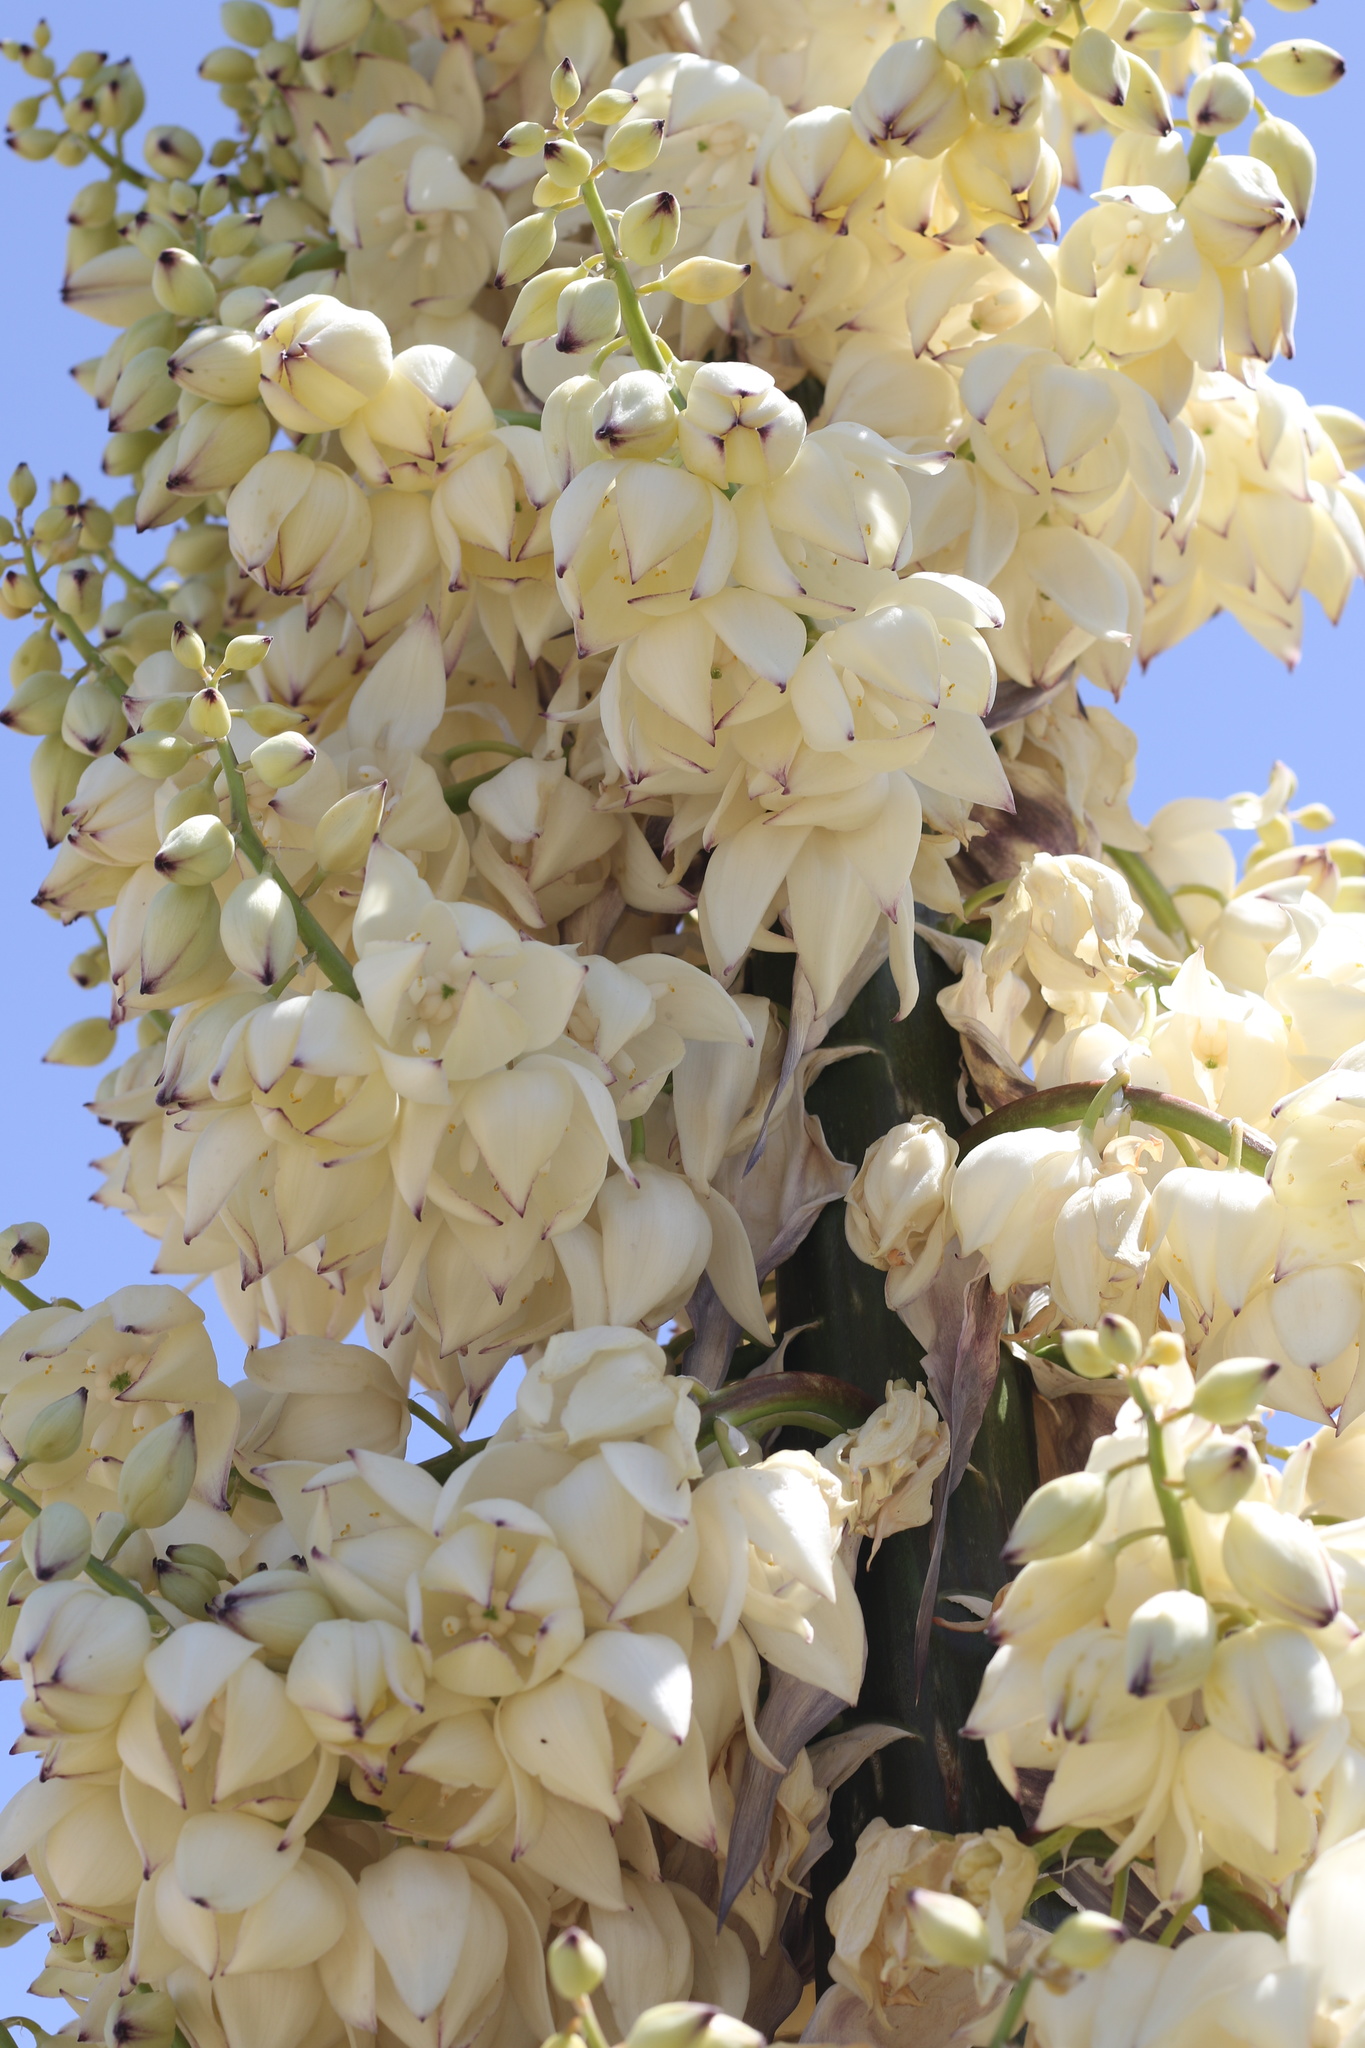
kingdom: Plantae
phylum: Tracheophyta
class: Liliopsida
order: Asparagales
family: Asparagaceae
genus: Hesperoyucca
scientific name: Hesperoyucca whipplei
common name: Our lord's-candle
